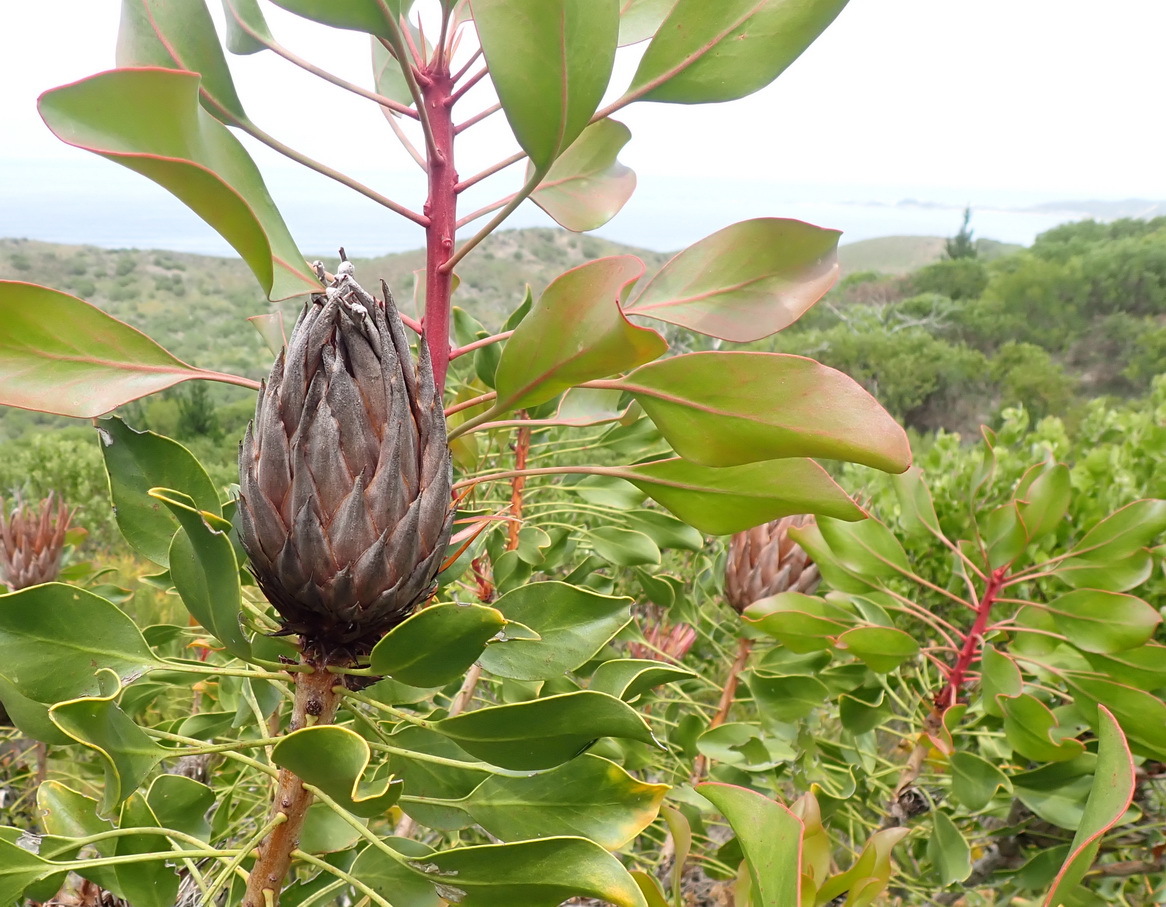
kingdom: Plantae
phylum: Tracheophyta
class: Magnoliopsida
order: Proteales
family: Proteaceae
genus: Protea
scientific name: Protea cynaroides
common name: King protea
